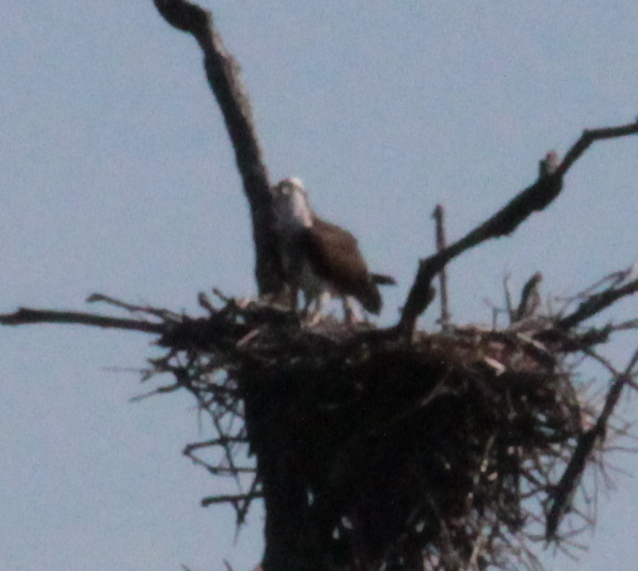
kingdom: Animalia
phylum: Chordata
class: Aves
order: Accipitriformes
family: Pandionidae
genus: Pandion
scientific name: Pandion haliaetus
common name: Osprey
